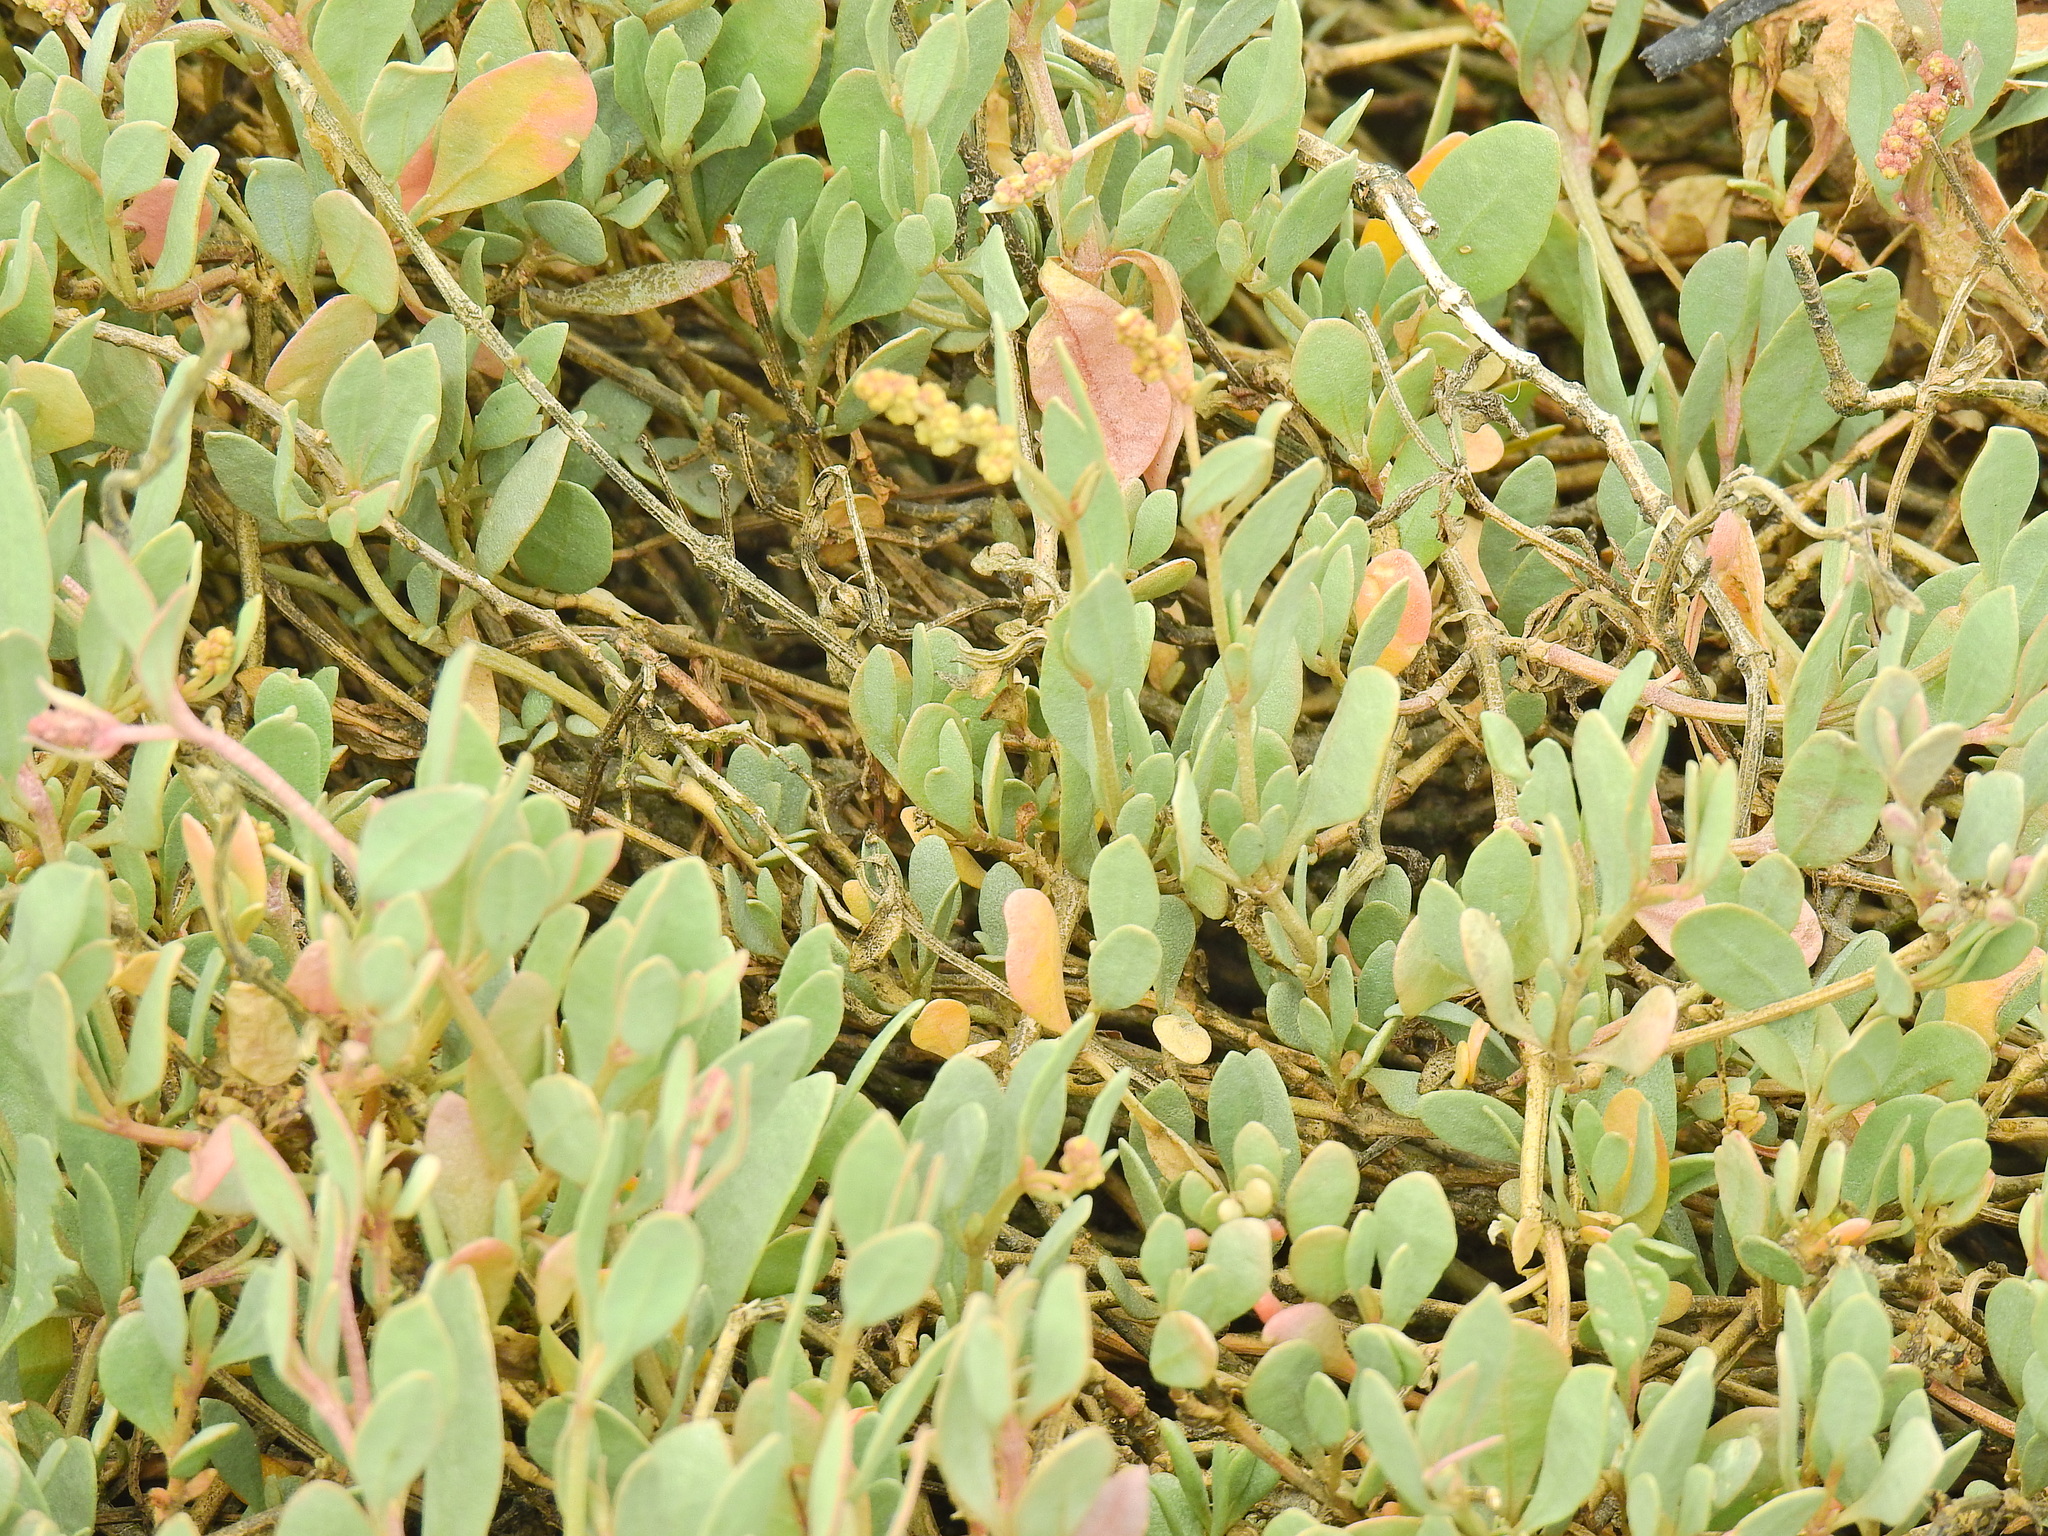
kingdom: Plantae
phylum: Tracheophyta
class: Magnoliopsida
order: Caryophyllales
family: Amaranthaceae
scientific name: Amaranthaceae
